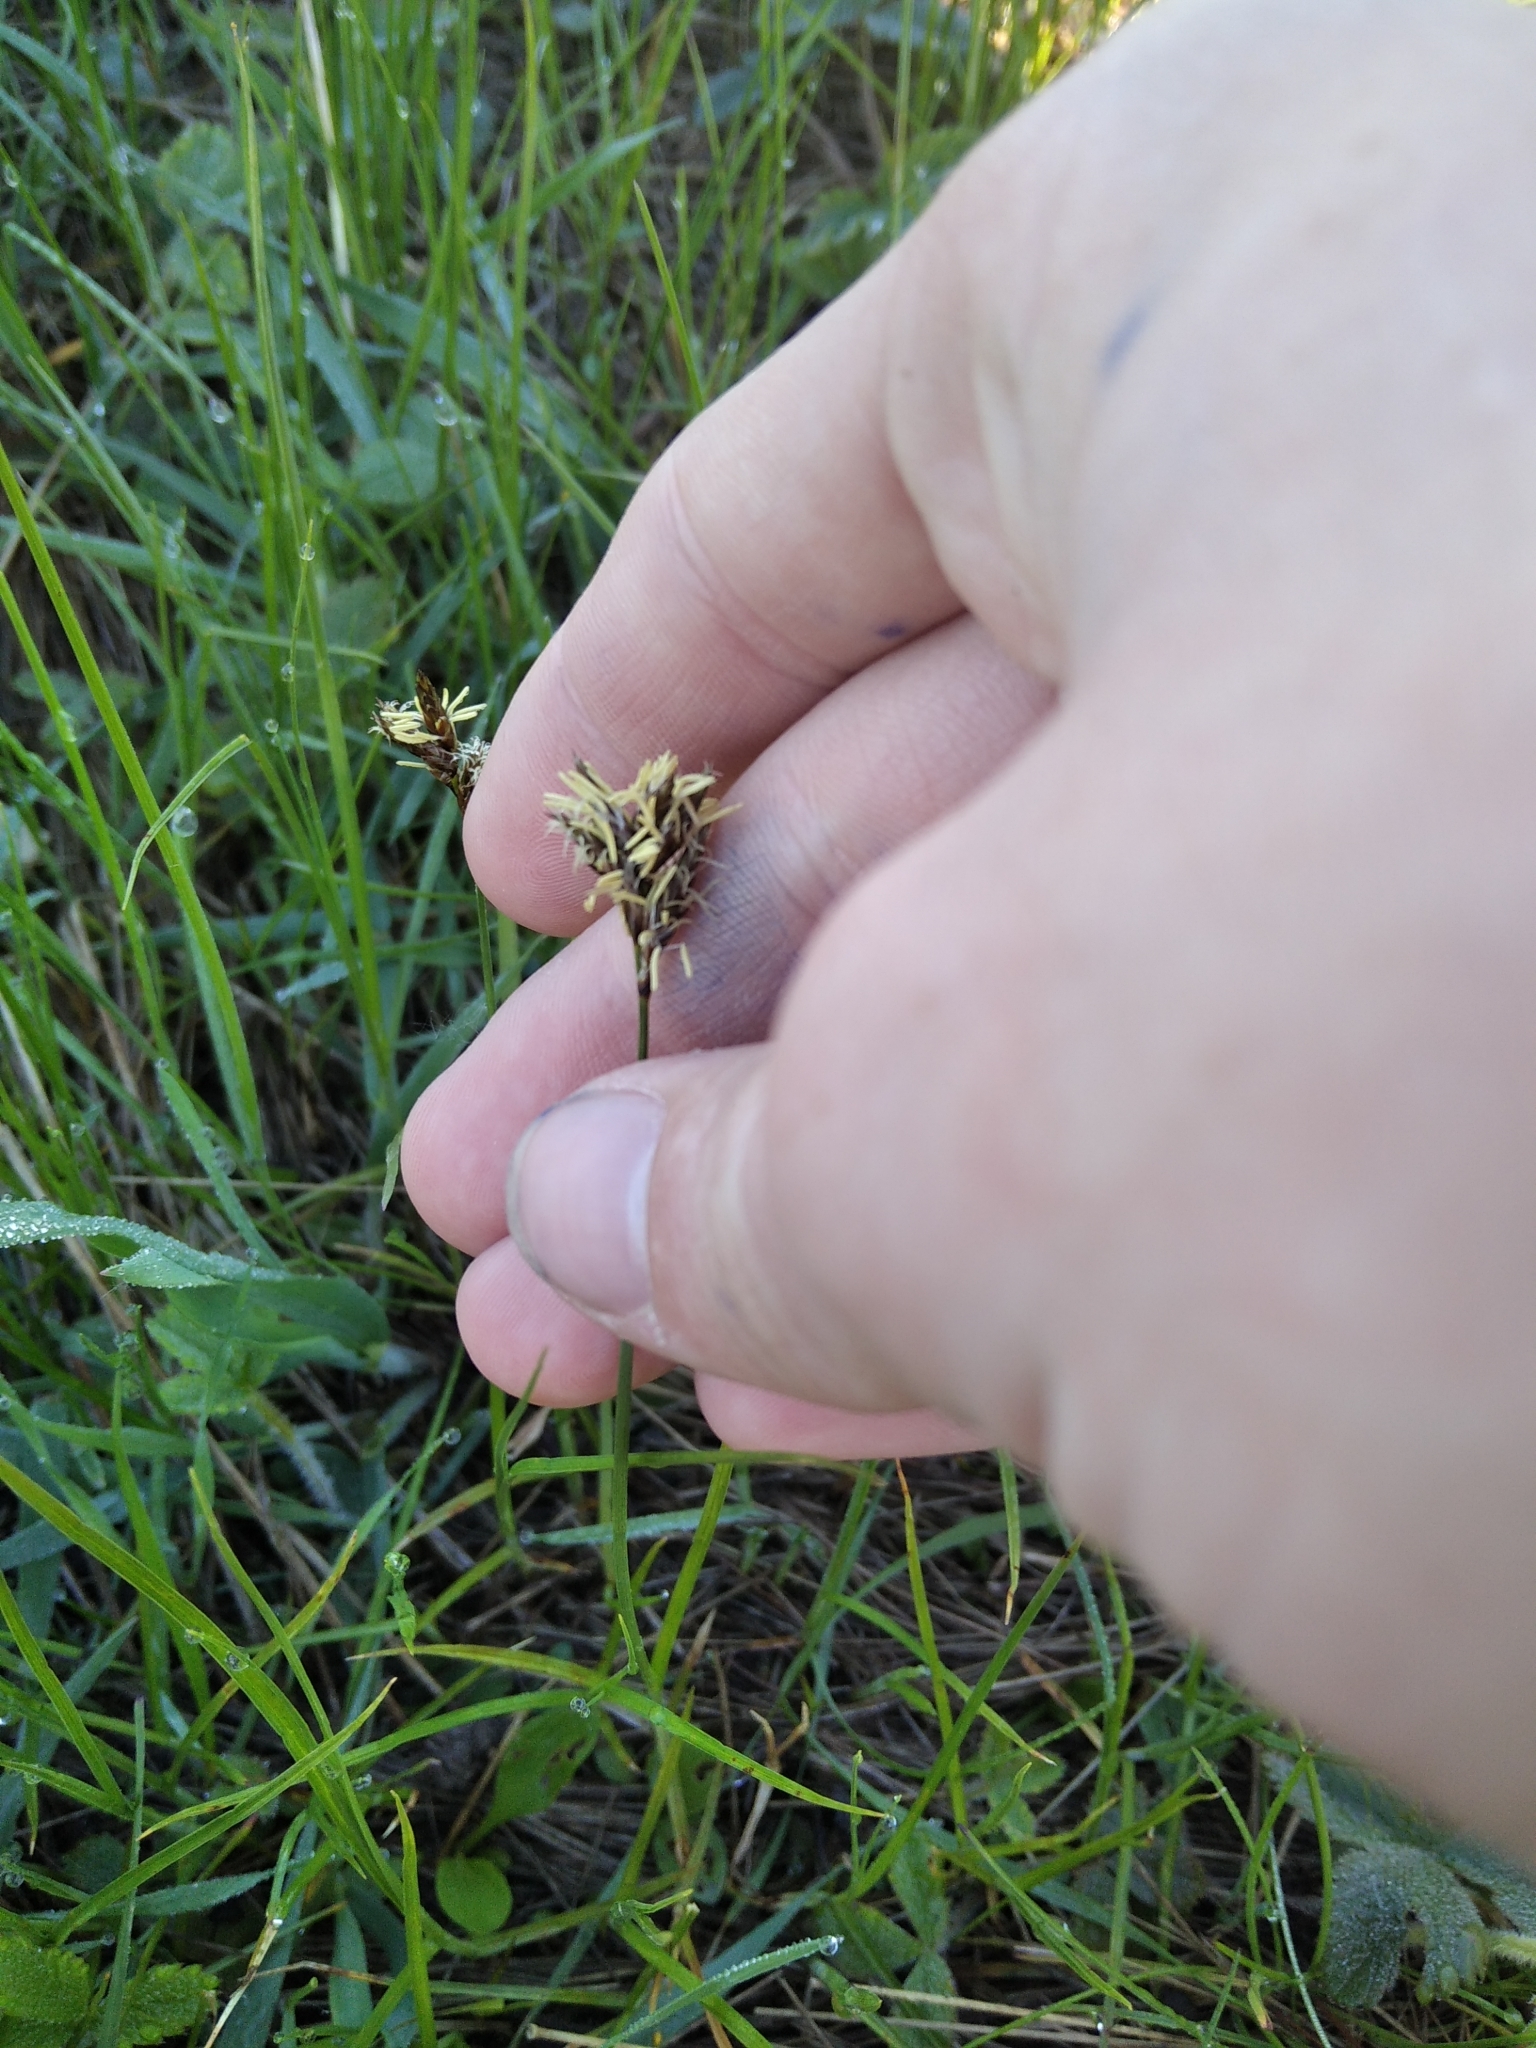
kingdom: Plantae
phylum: Tracheophyta
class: Liliopsida
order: Poales
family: Cyperaceae
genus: Carex
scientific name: Carex praecox
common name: Early sedge
